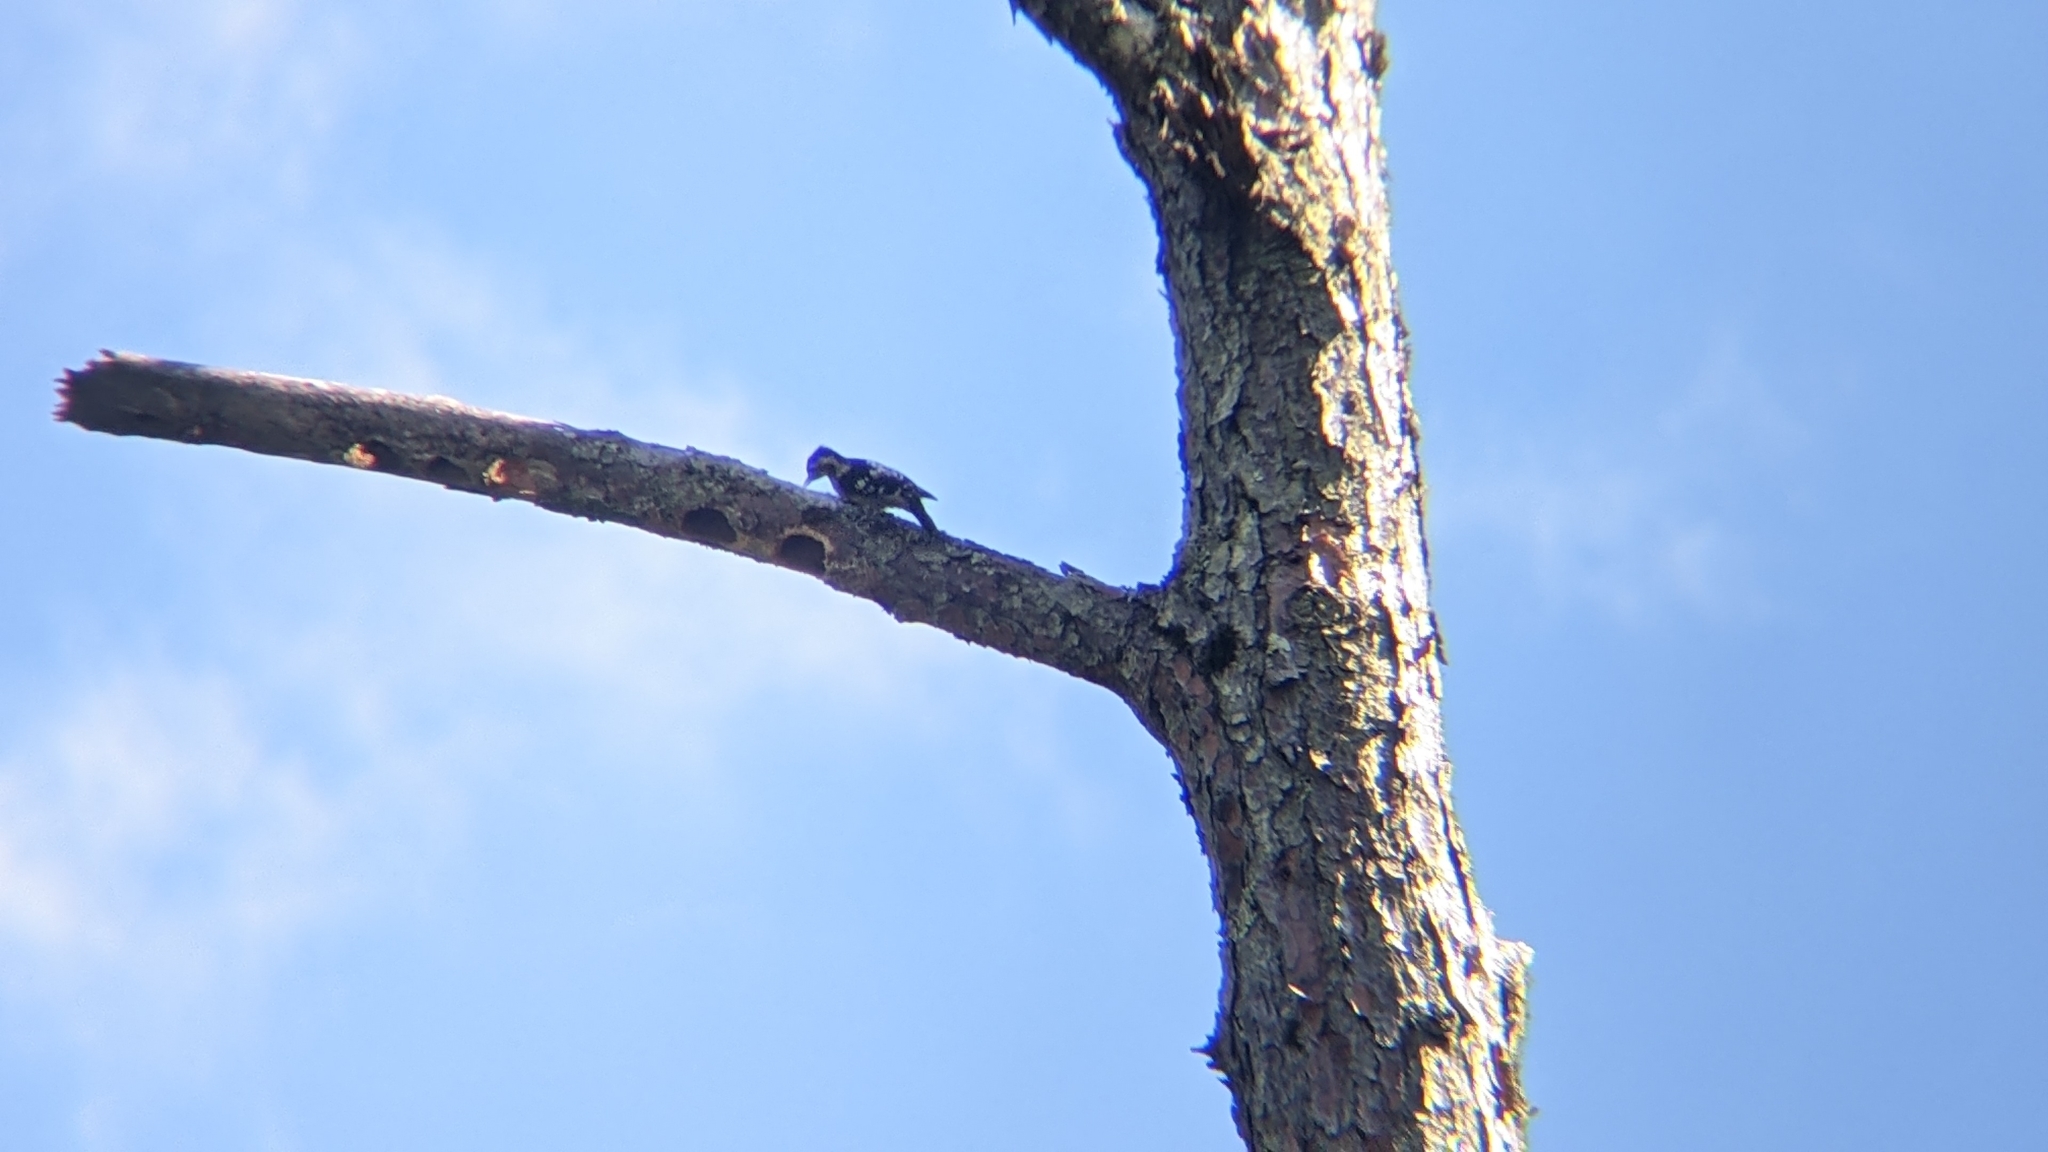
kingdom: Animalia
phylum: Chordata
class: Aves
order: Piciformes
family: Picidae
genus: Yungipicus
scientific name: Yungipicus canicapillus
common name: Grey-capped pygmy woodpecker
